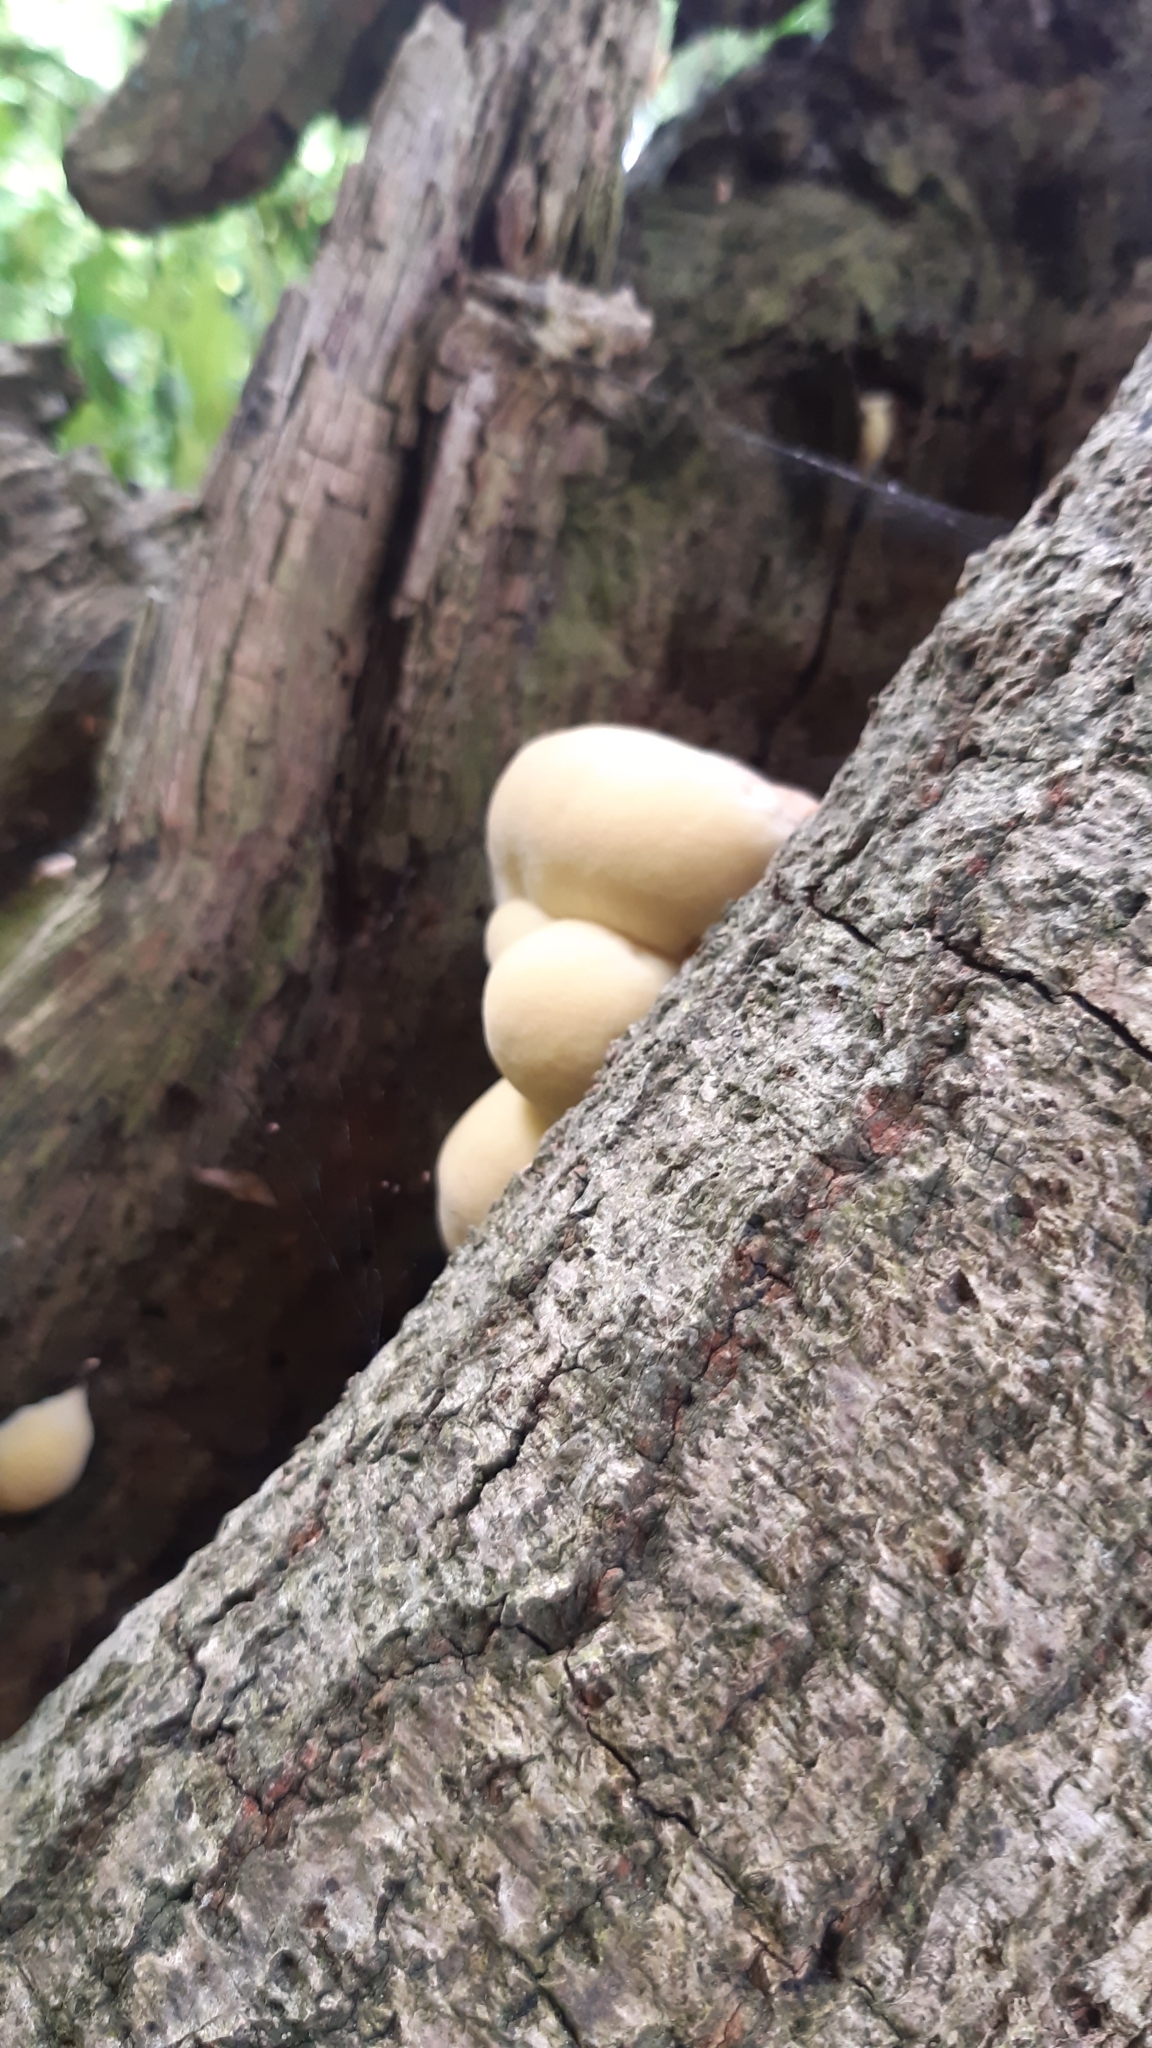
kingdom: Fungi
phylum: Basidiomycota
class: Agaricomycetes
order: Polyporales
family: Laetiporaceae
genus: Laetiporus
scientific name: Laetiporus sulphureus
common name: Chicken of the woods
